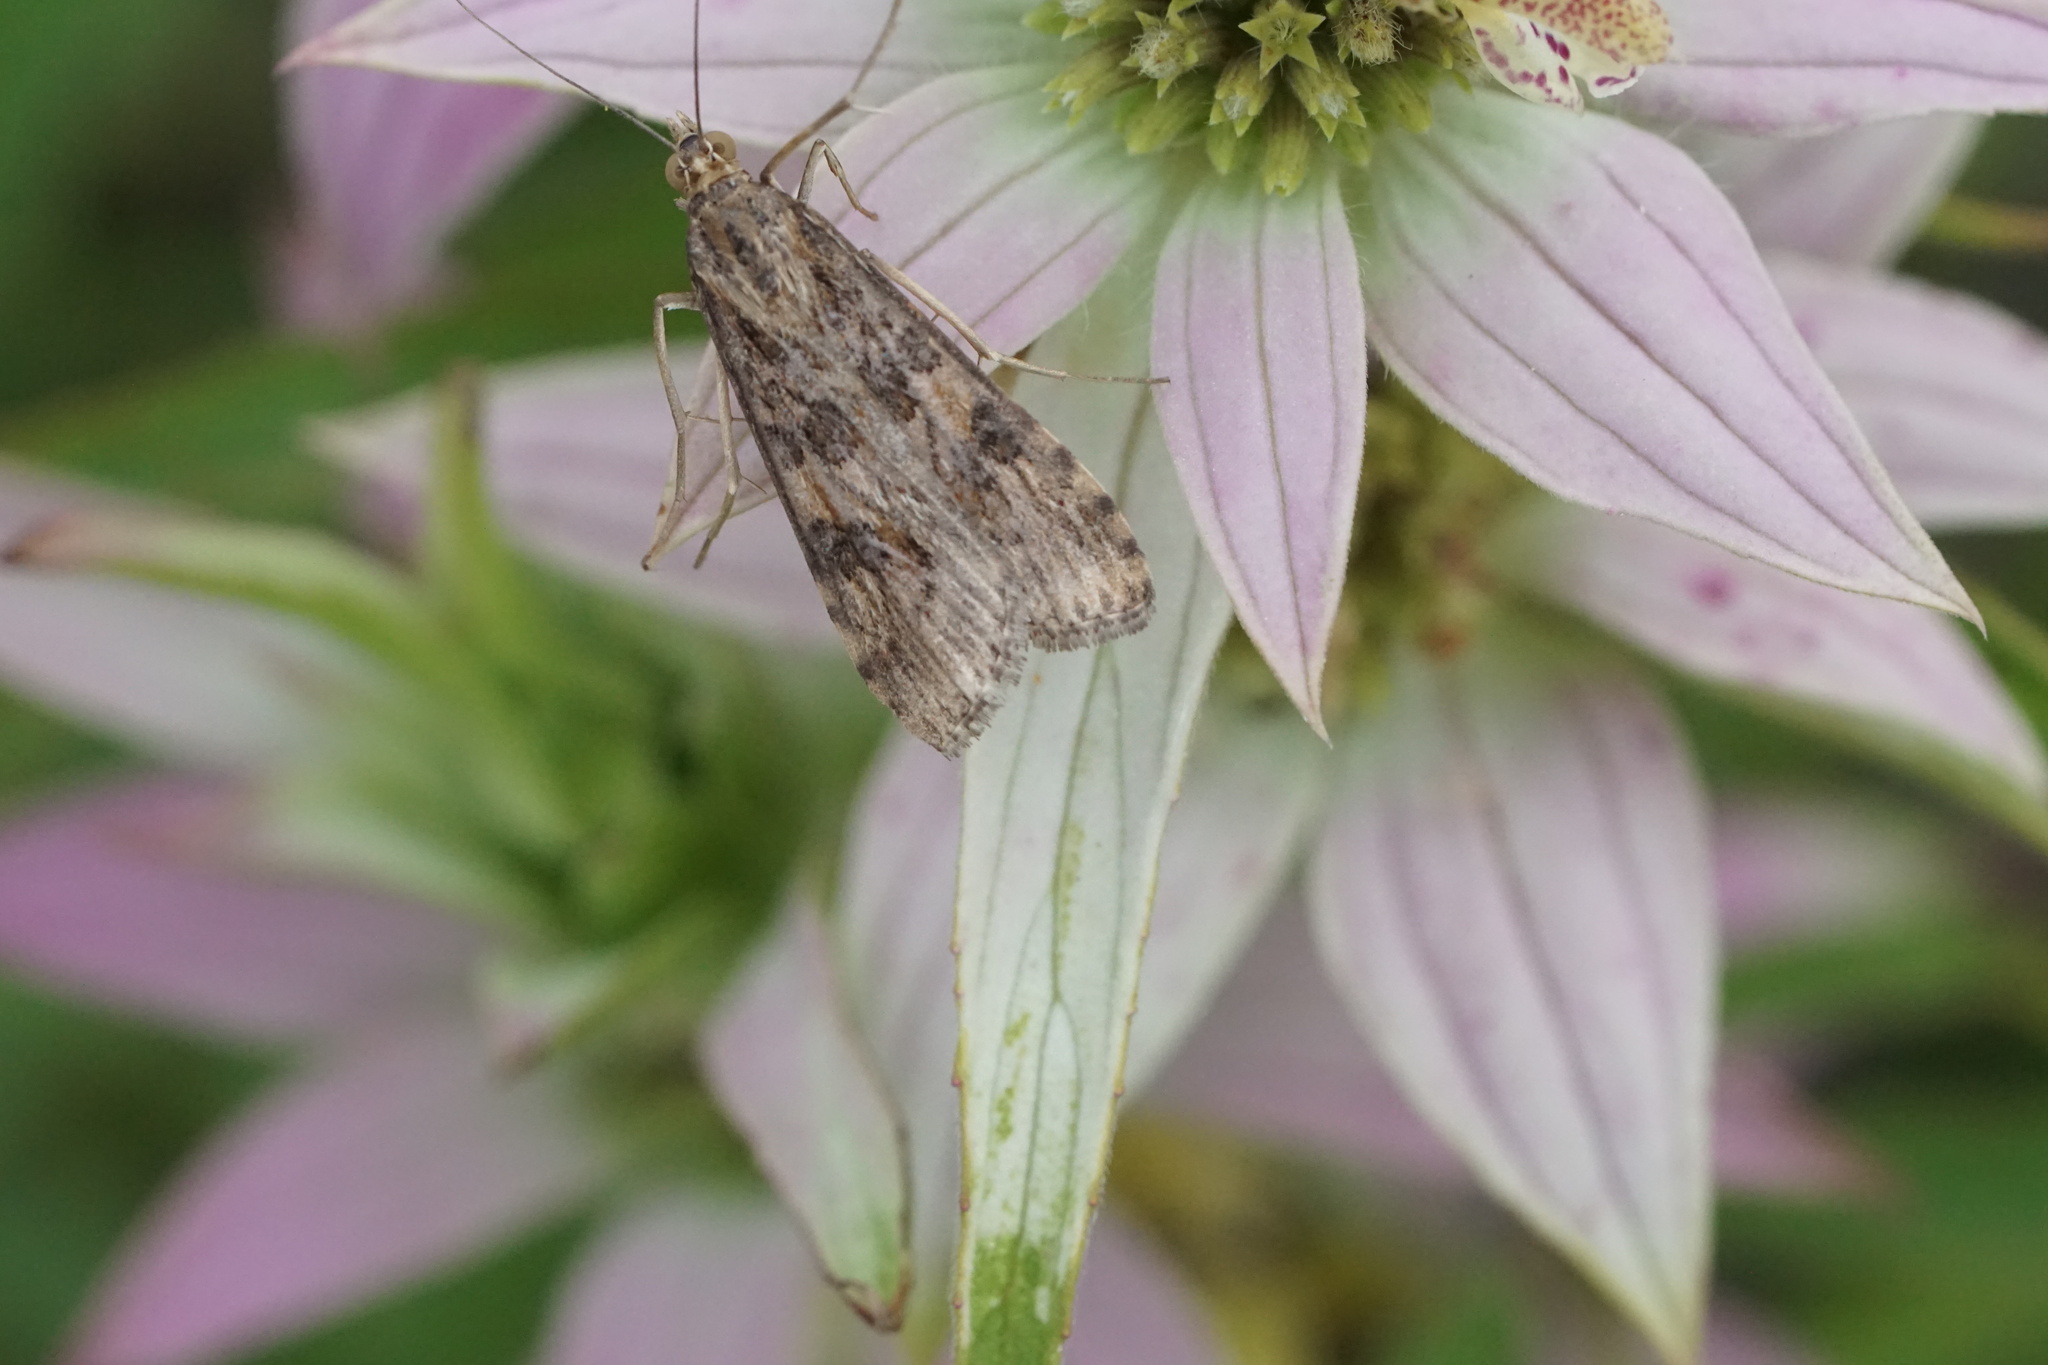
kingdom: Animalia
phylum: Arthropoda
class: Insecta
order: Lepidoptera
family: Crambidae
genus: Nomophila
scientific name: Nomophila nearctica
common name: American rush veneer
